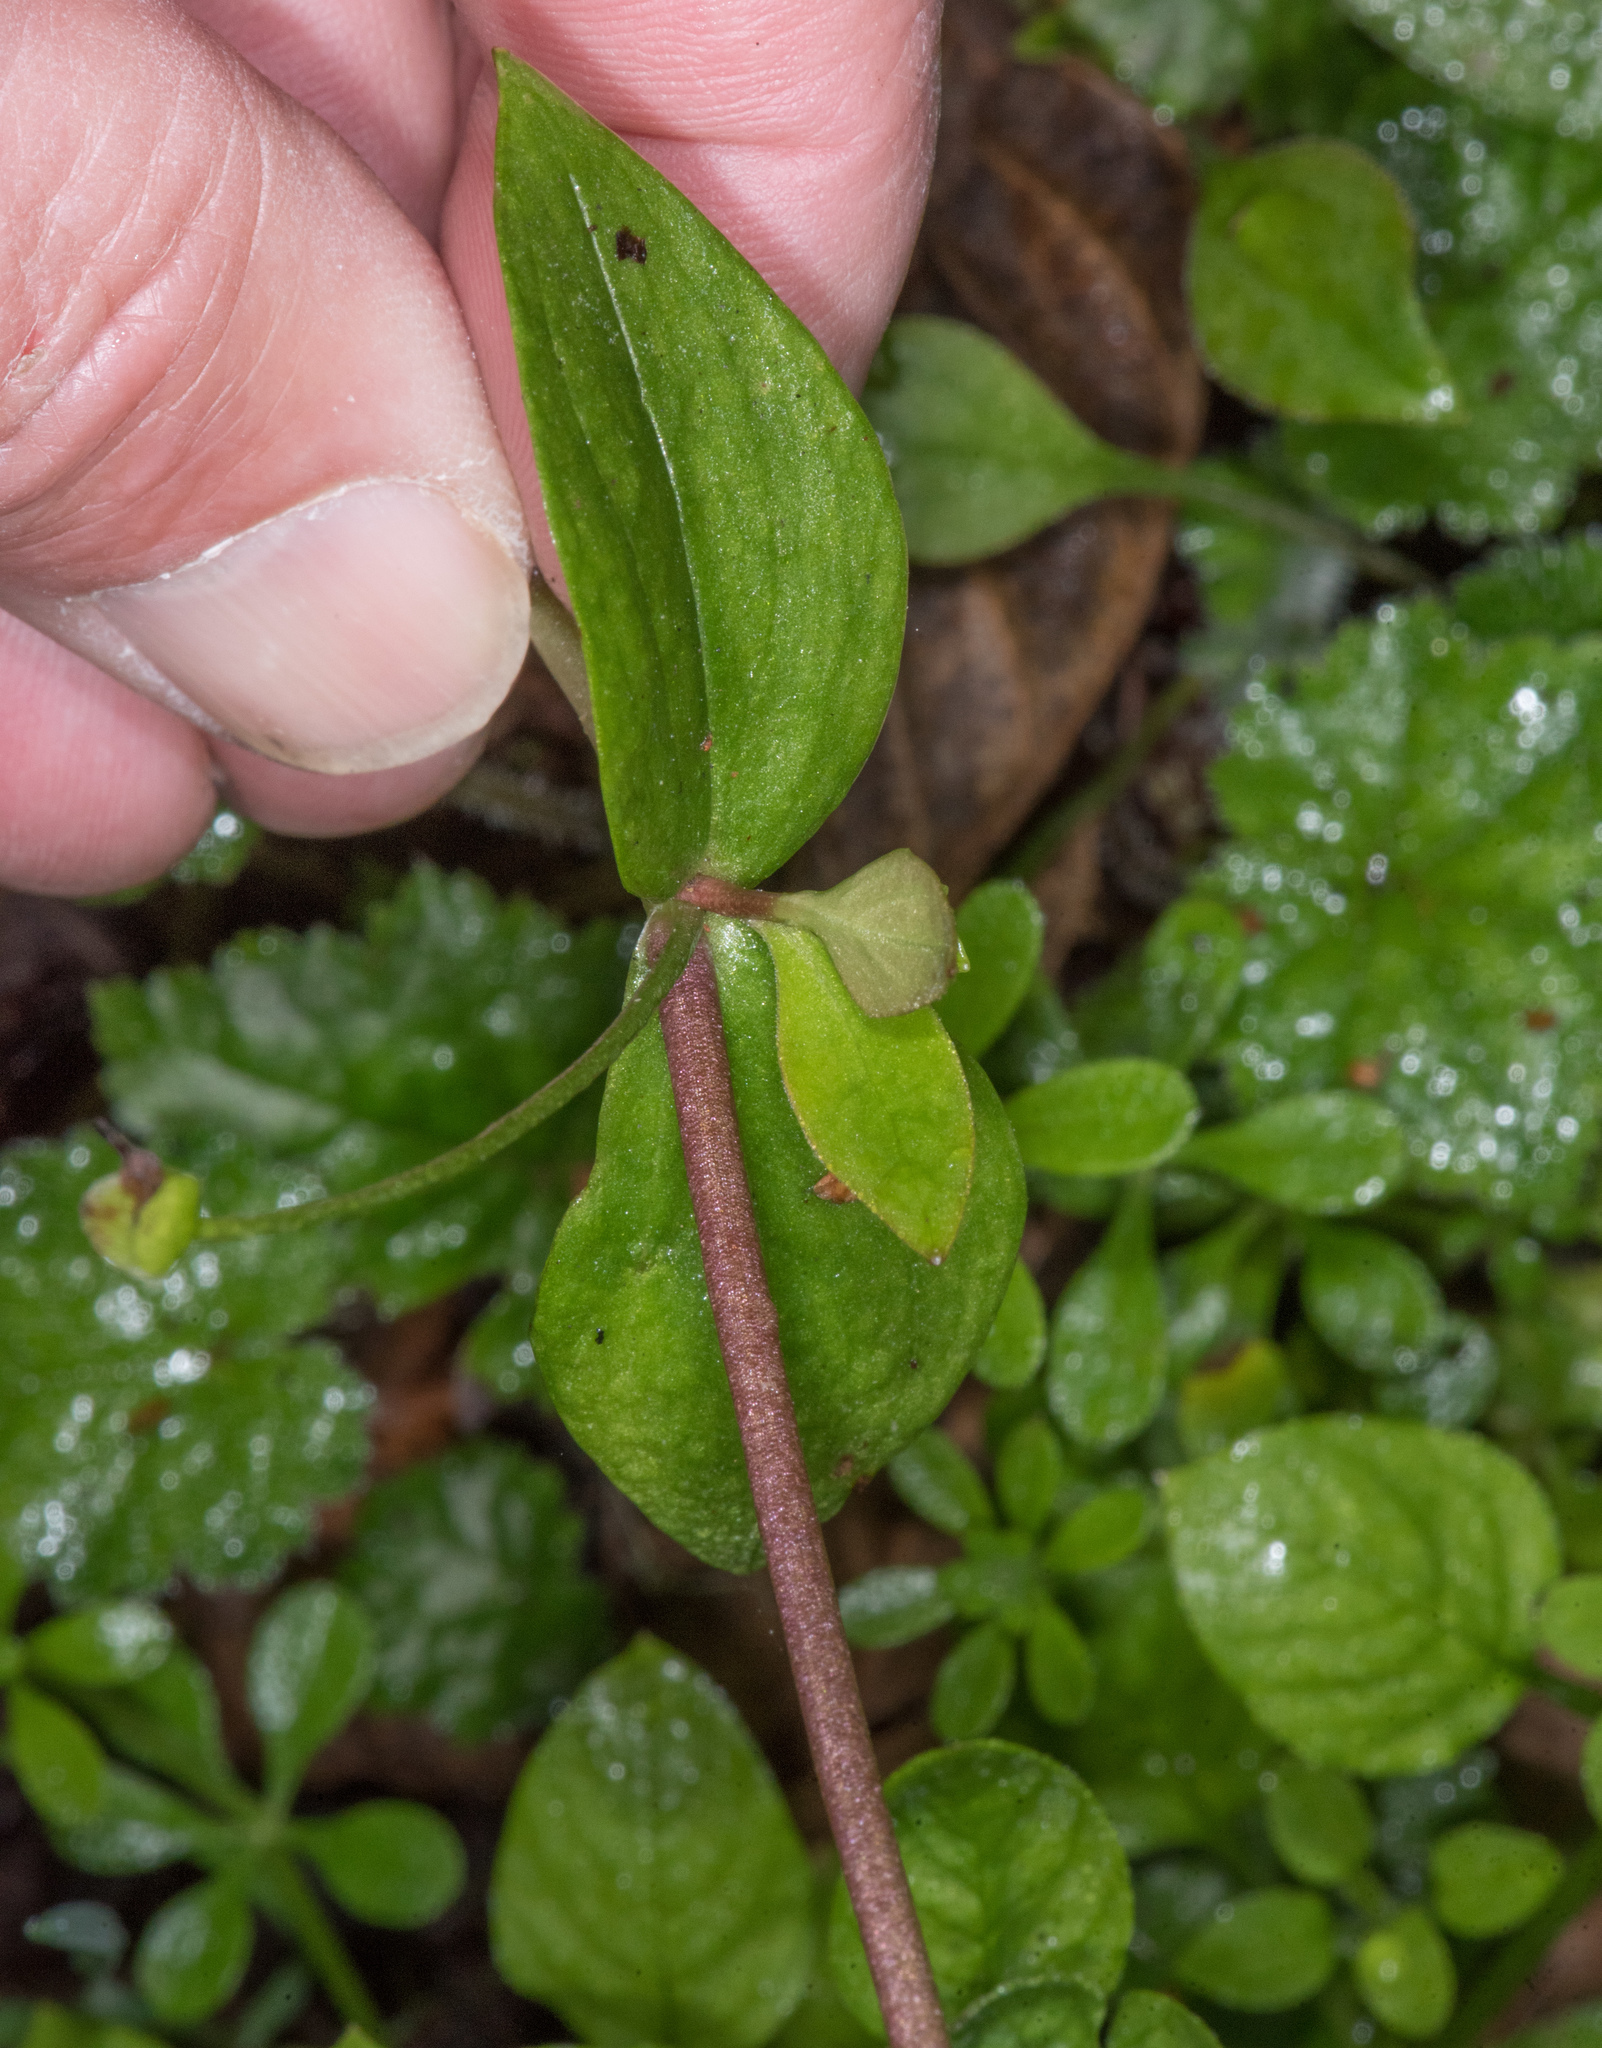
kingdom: Plantae
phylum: Tracheophyta
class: Magnoliopsida
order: Caryophyllales
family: Montiaceae
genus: Claytonia
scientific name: Claytonia sibirica
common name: Pink purslane
